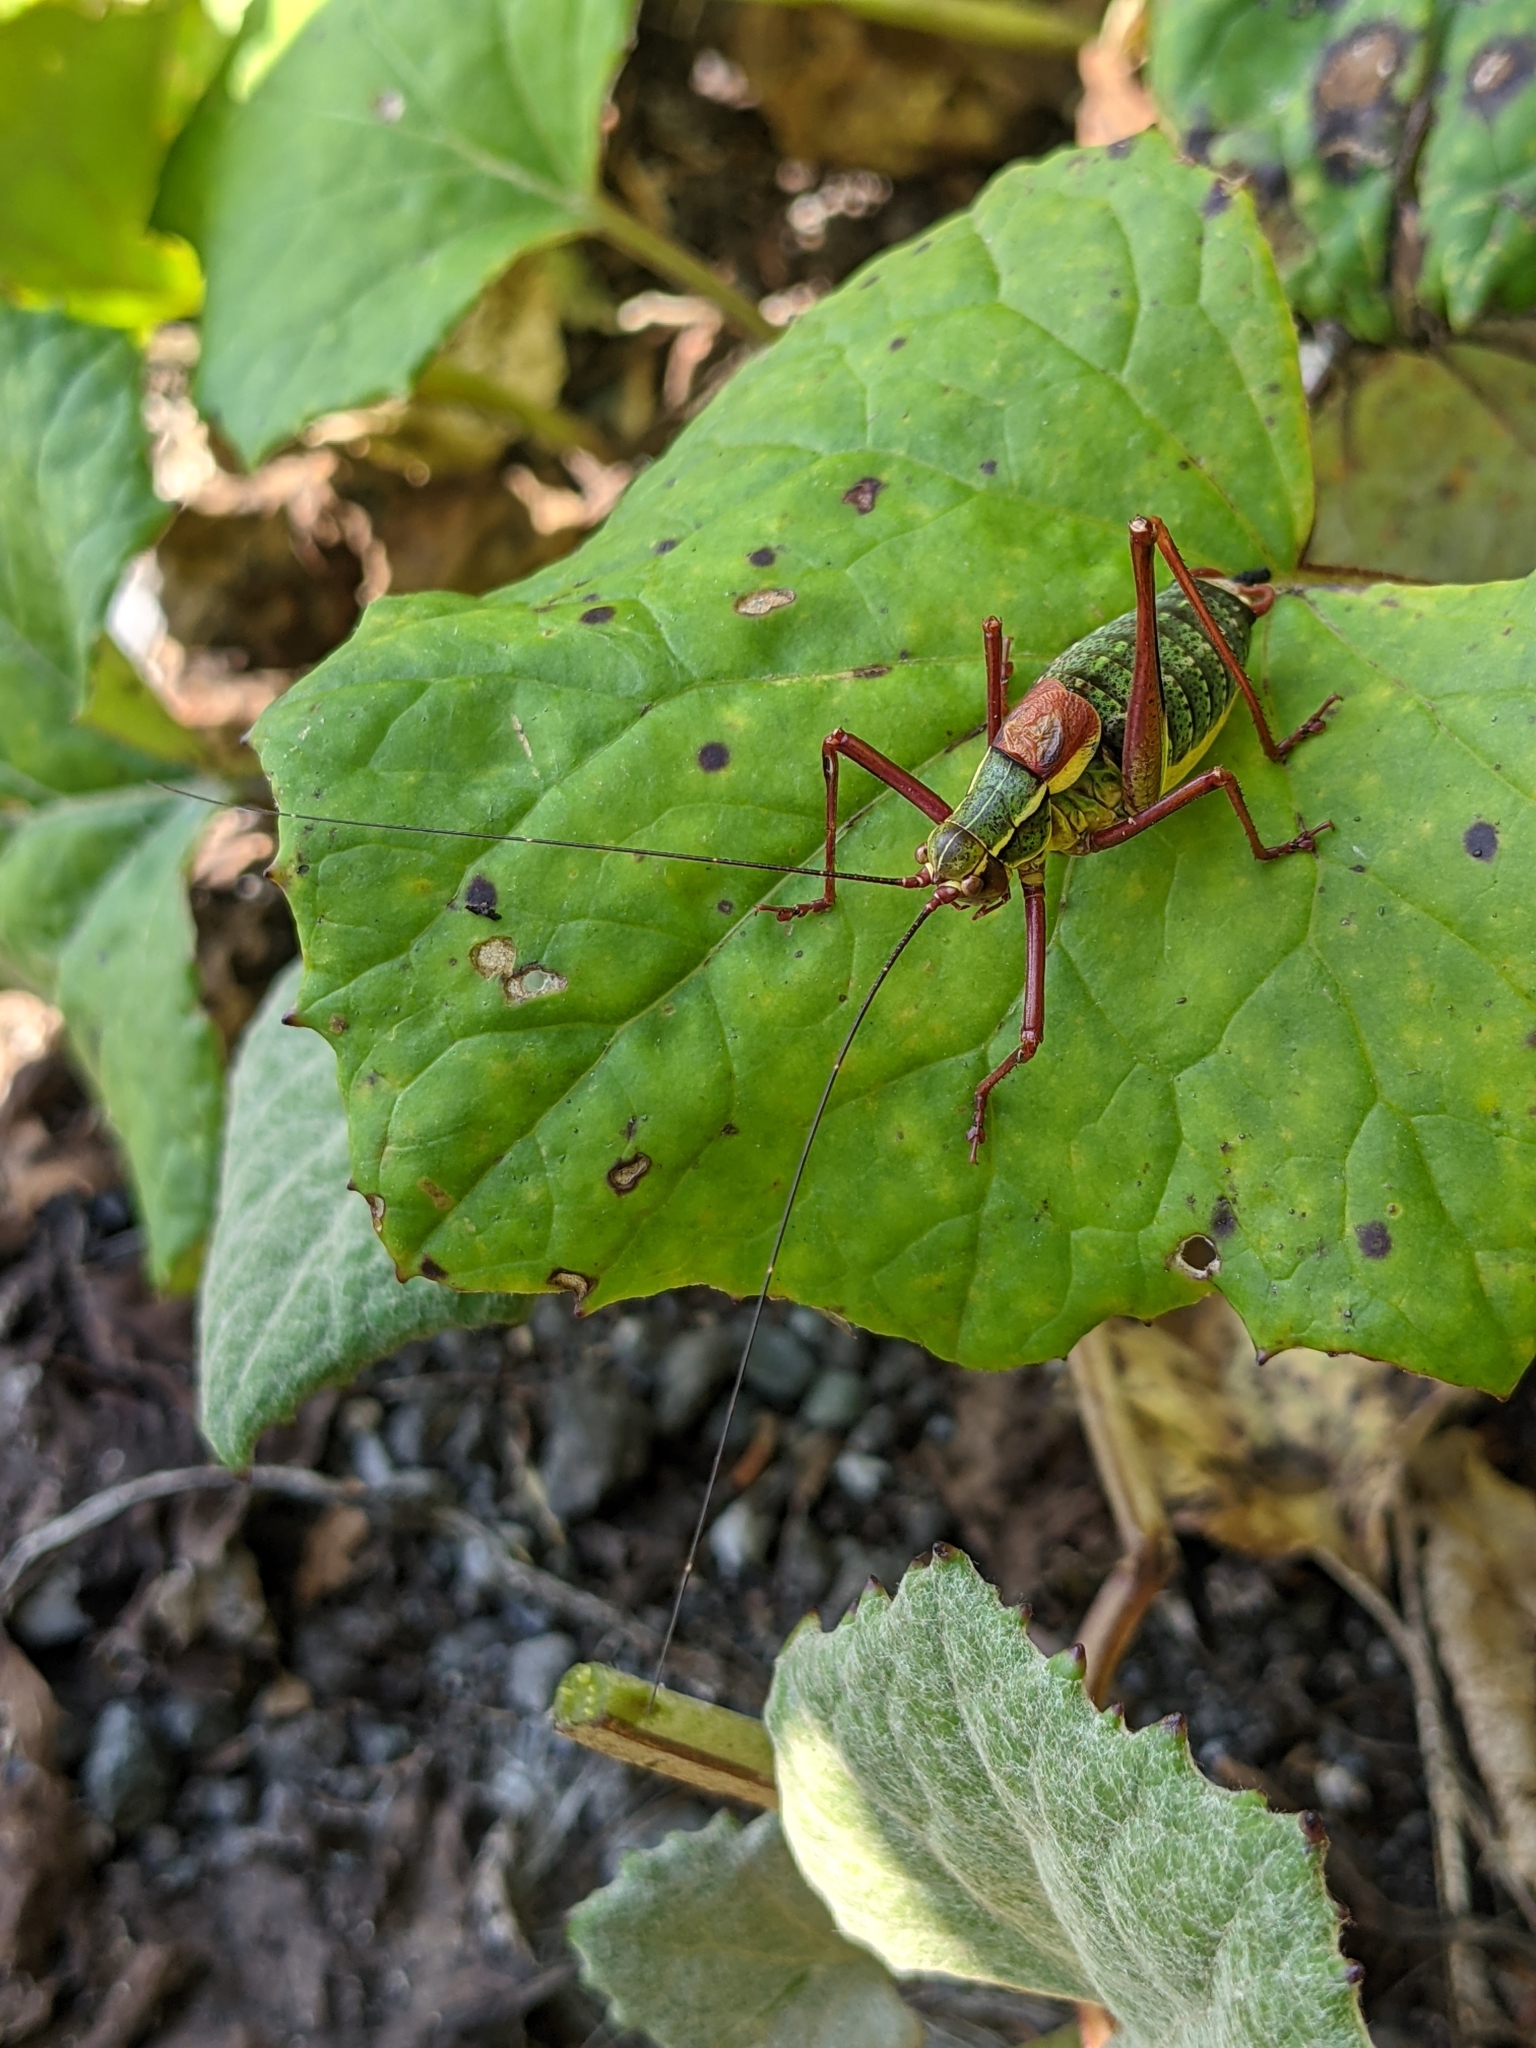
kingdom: Animalia
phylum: Arthropoda
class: Insecta
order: Orthoptera
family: Tettigoniidae
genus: Barbitistes
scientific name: Barbitistes serricauda
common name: Saw-tailed bush-cricket
